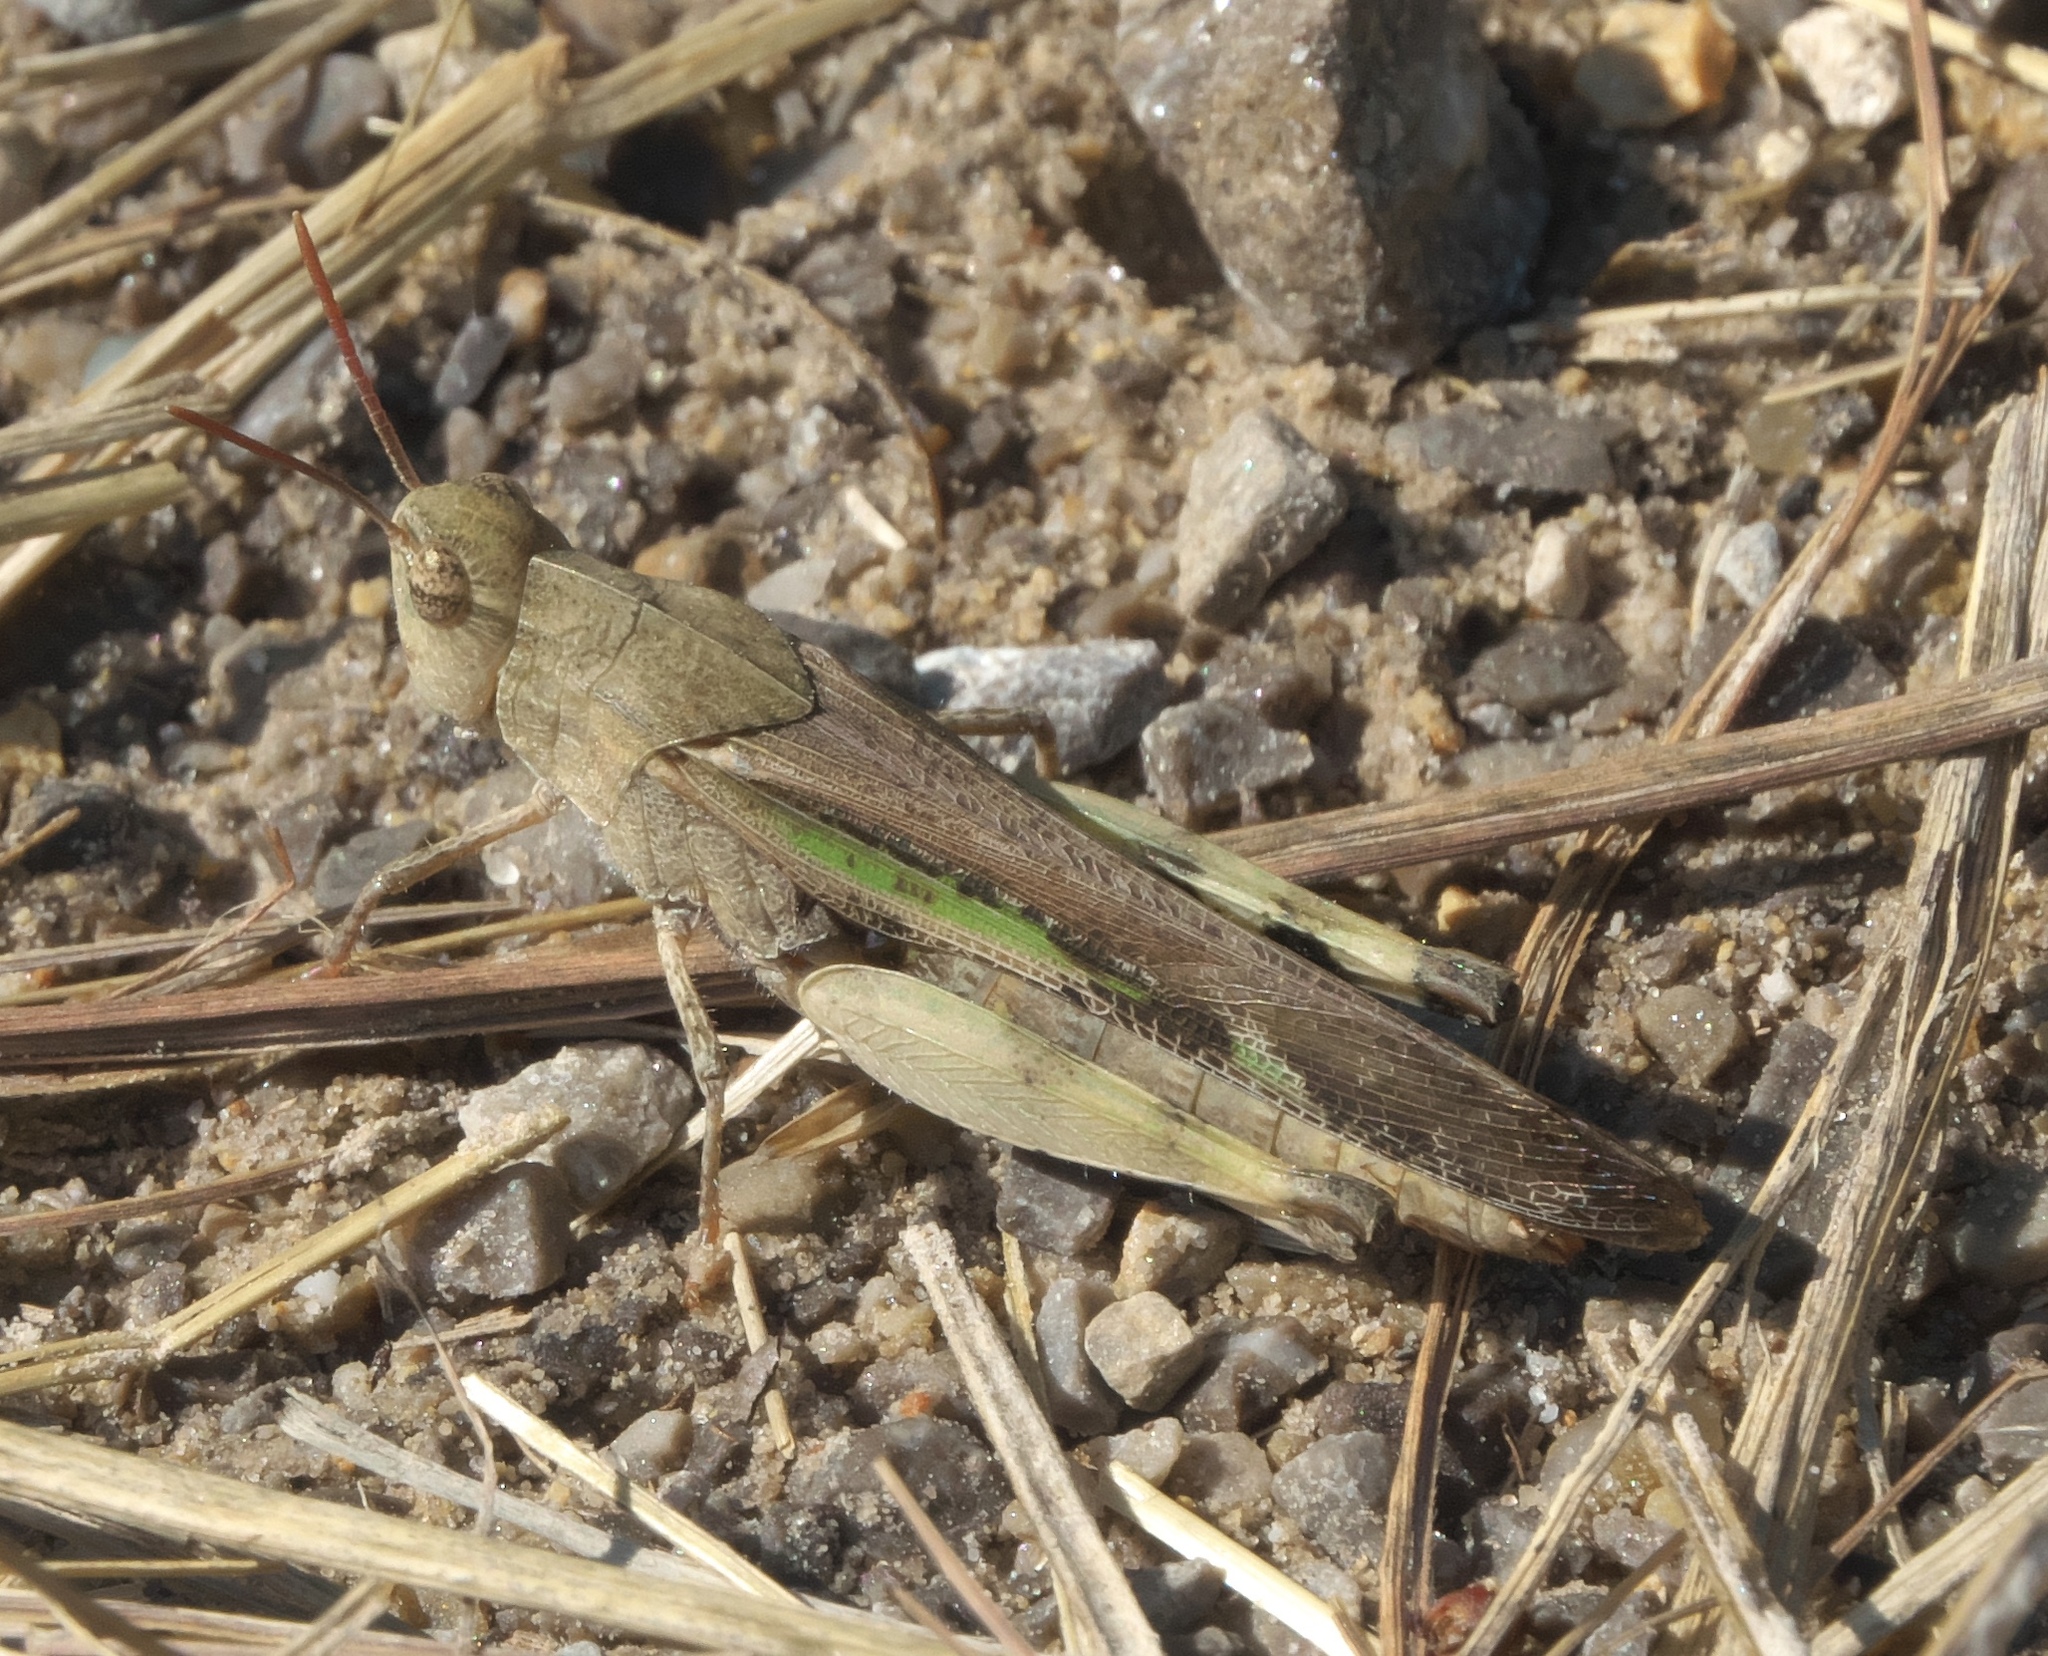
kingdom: Animalia
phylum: Arthropoda
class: Insecta
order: Orthoptera
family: Acrididae
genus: Chortophaga
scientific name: Chortophaga viridifasciata
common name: Green-striped grasshopper
